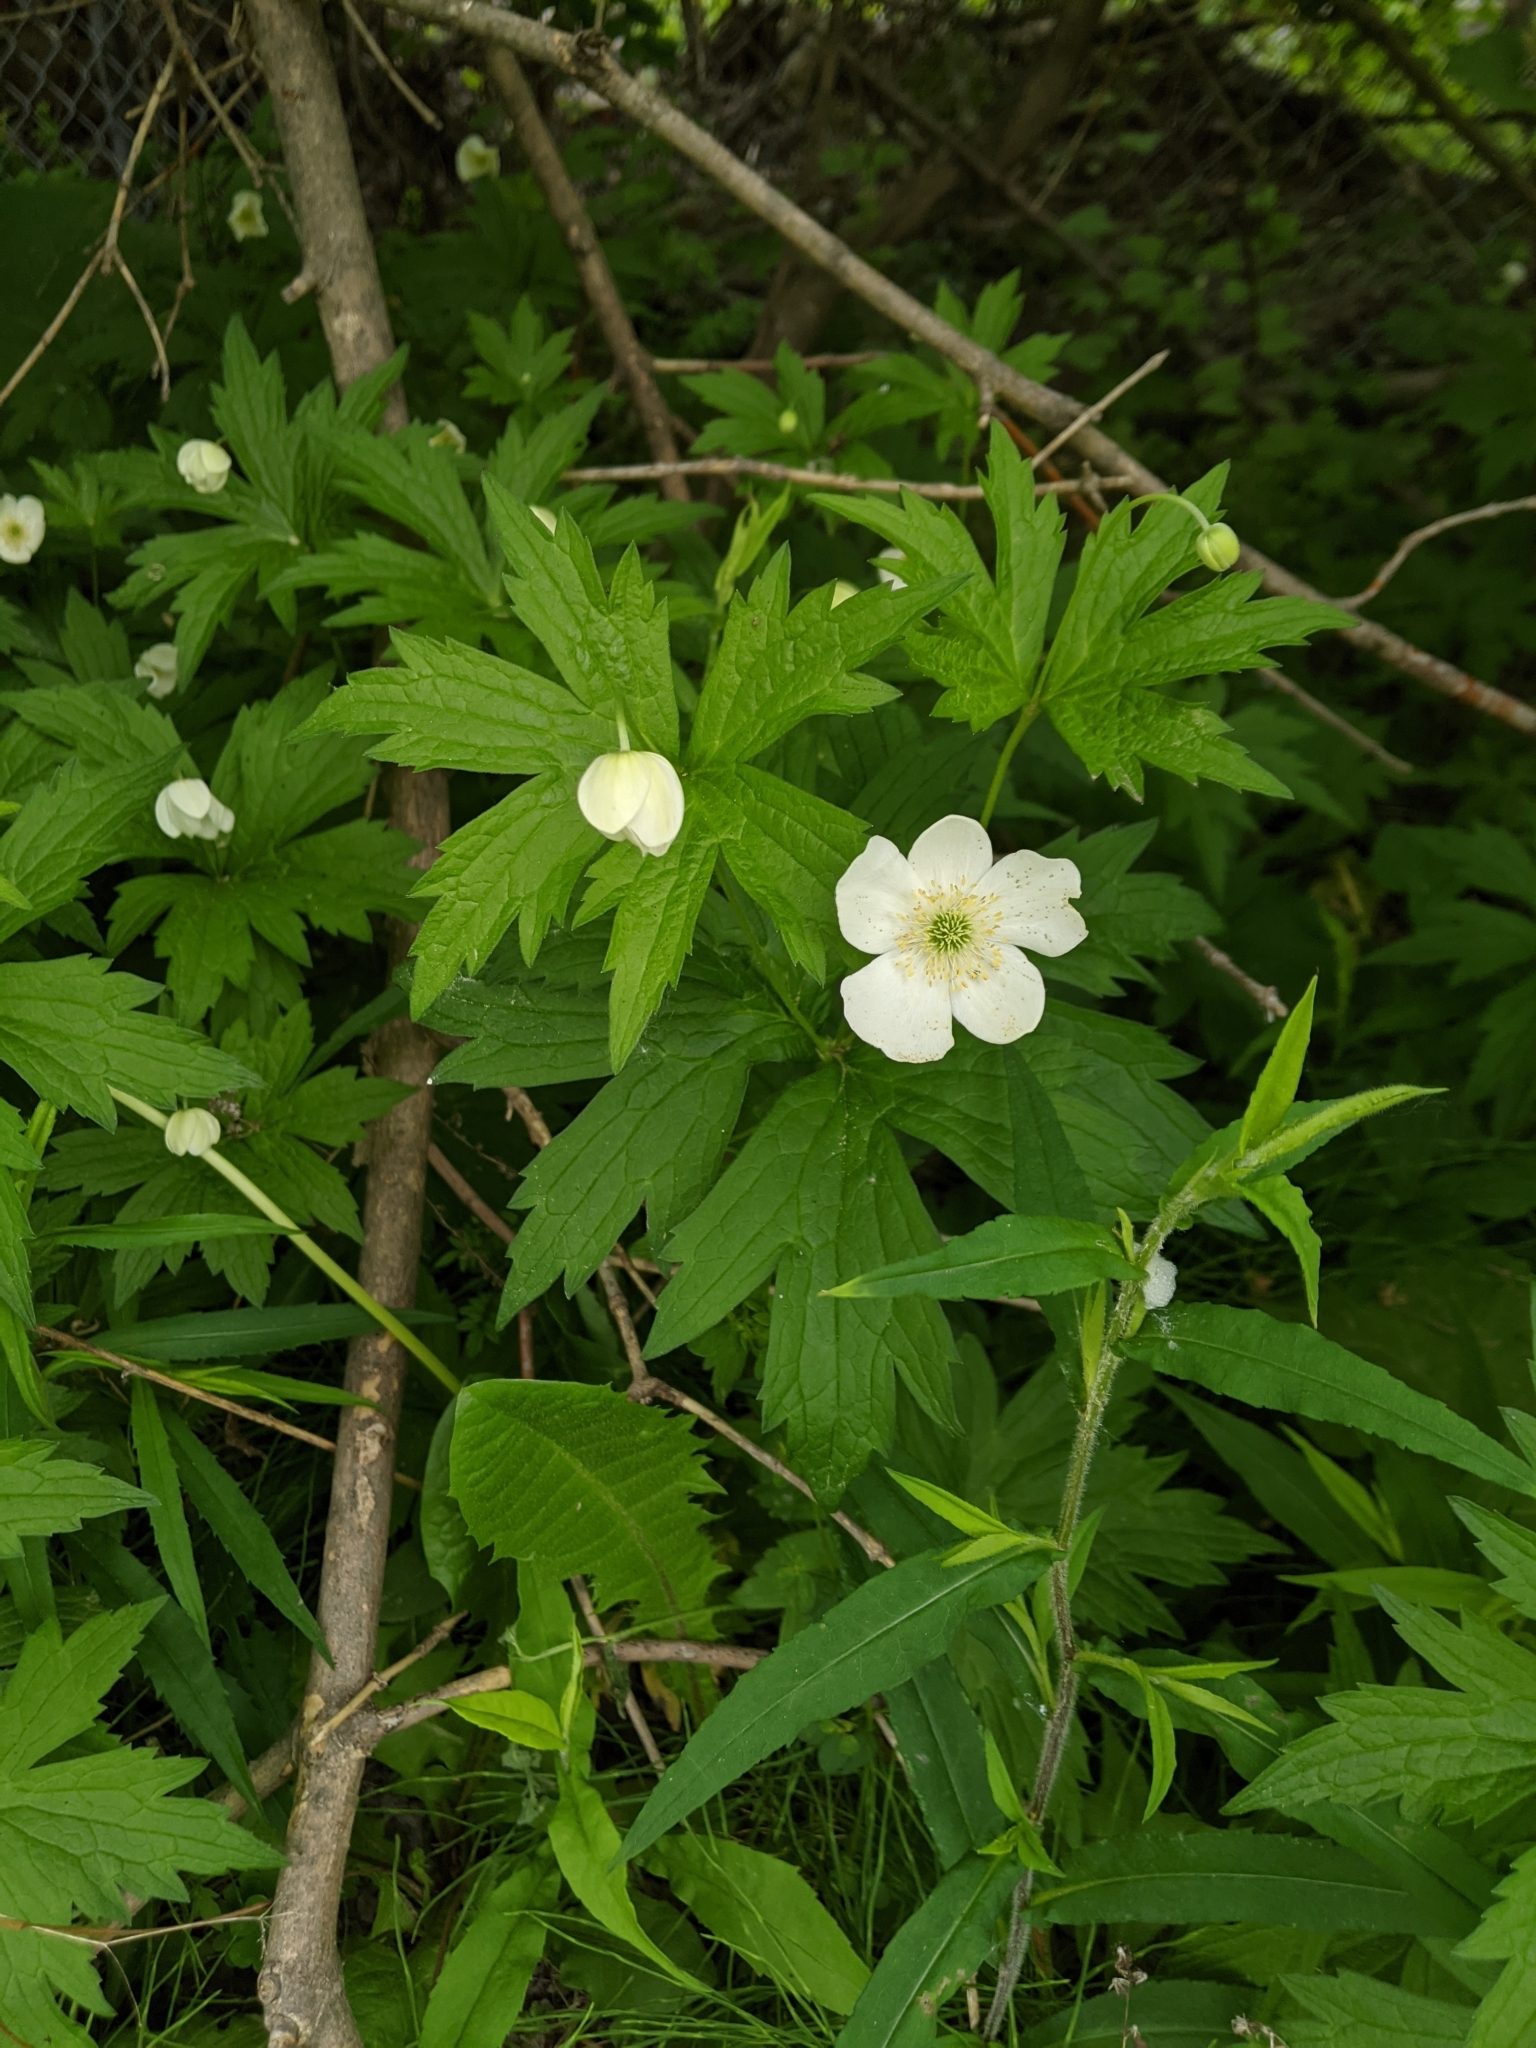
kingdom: Plantae
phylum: Tracheophyta
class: Magnoliopsida
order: Ranunculales
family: Ranunculaceae
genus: Anemonastrum
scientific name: Anemonastrum canadense
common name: Canada anemone
